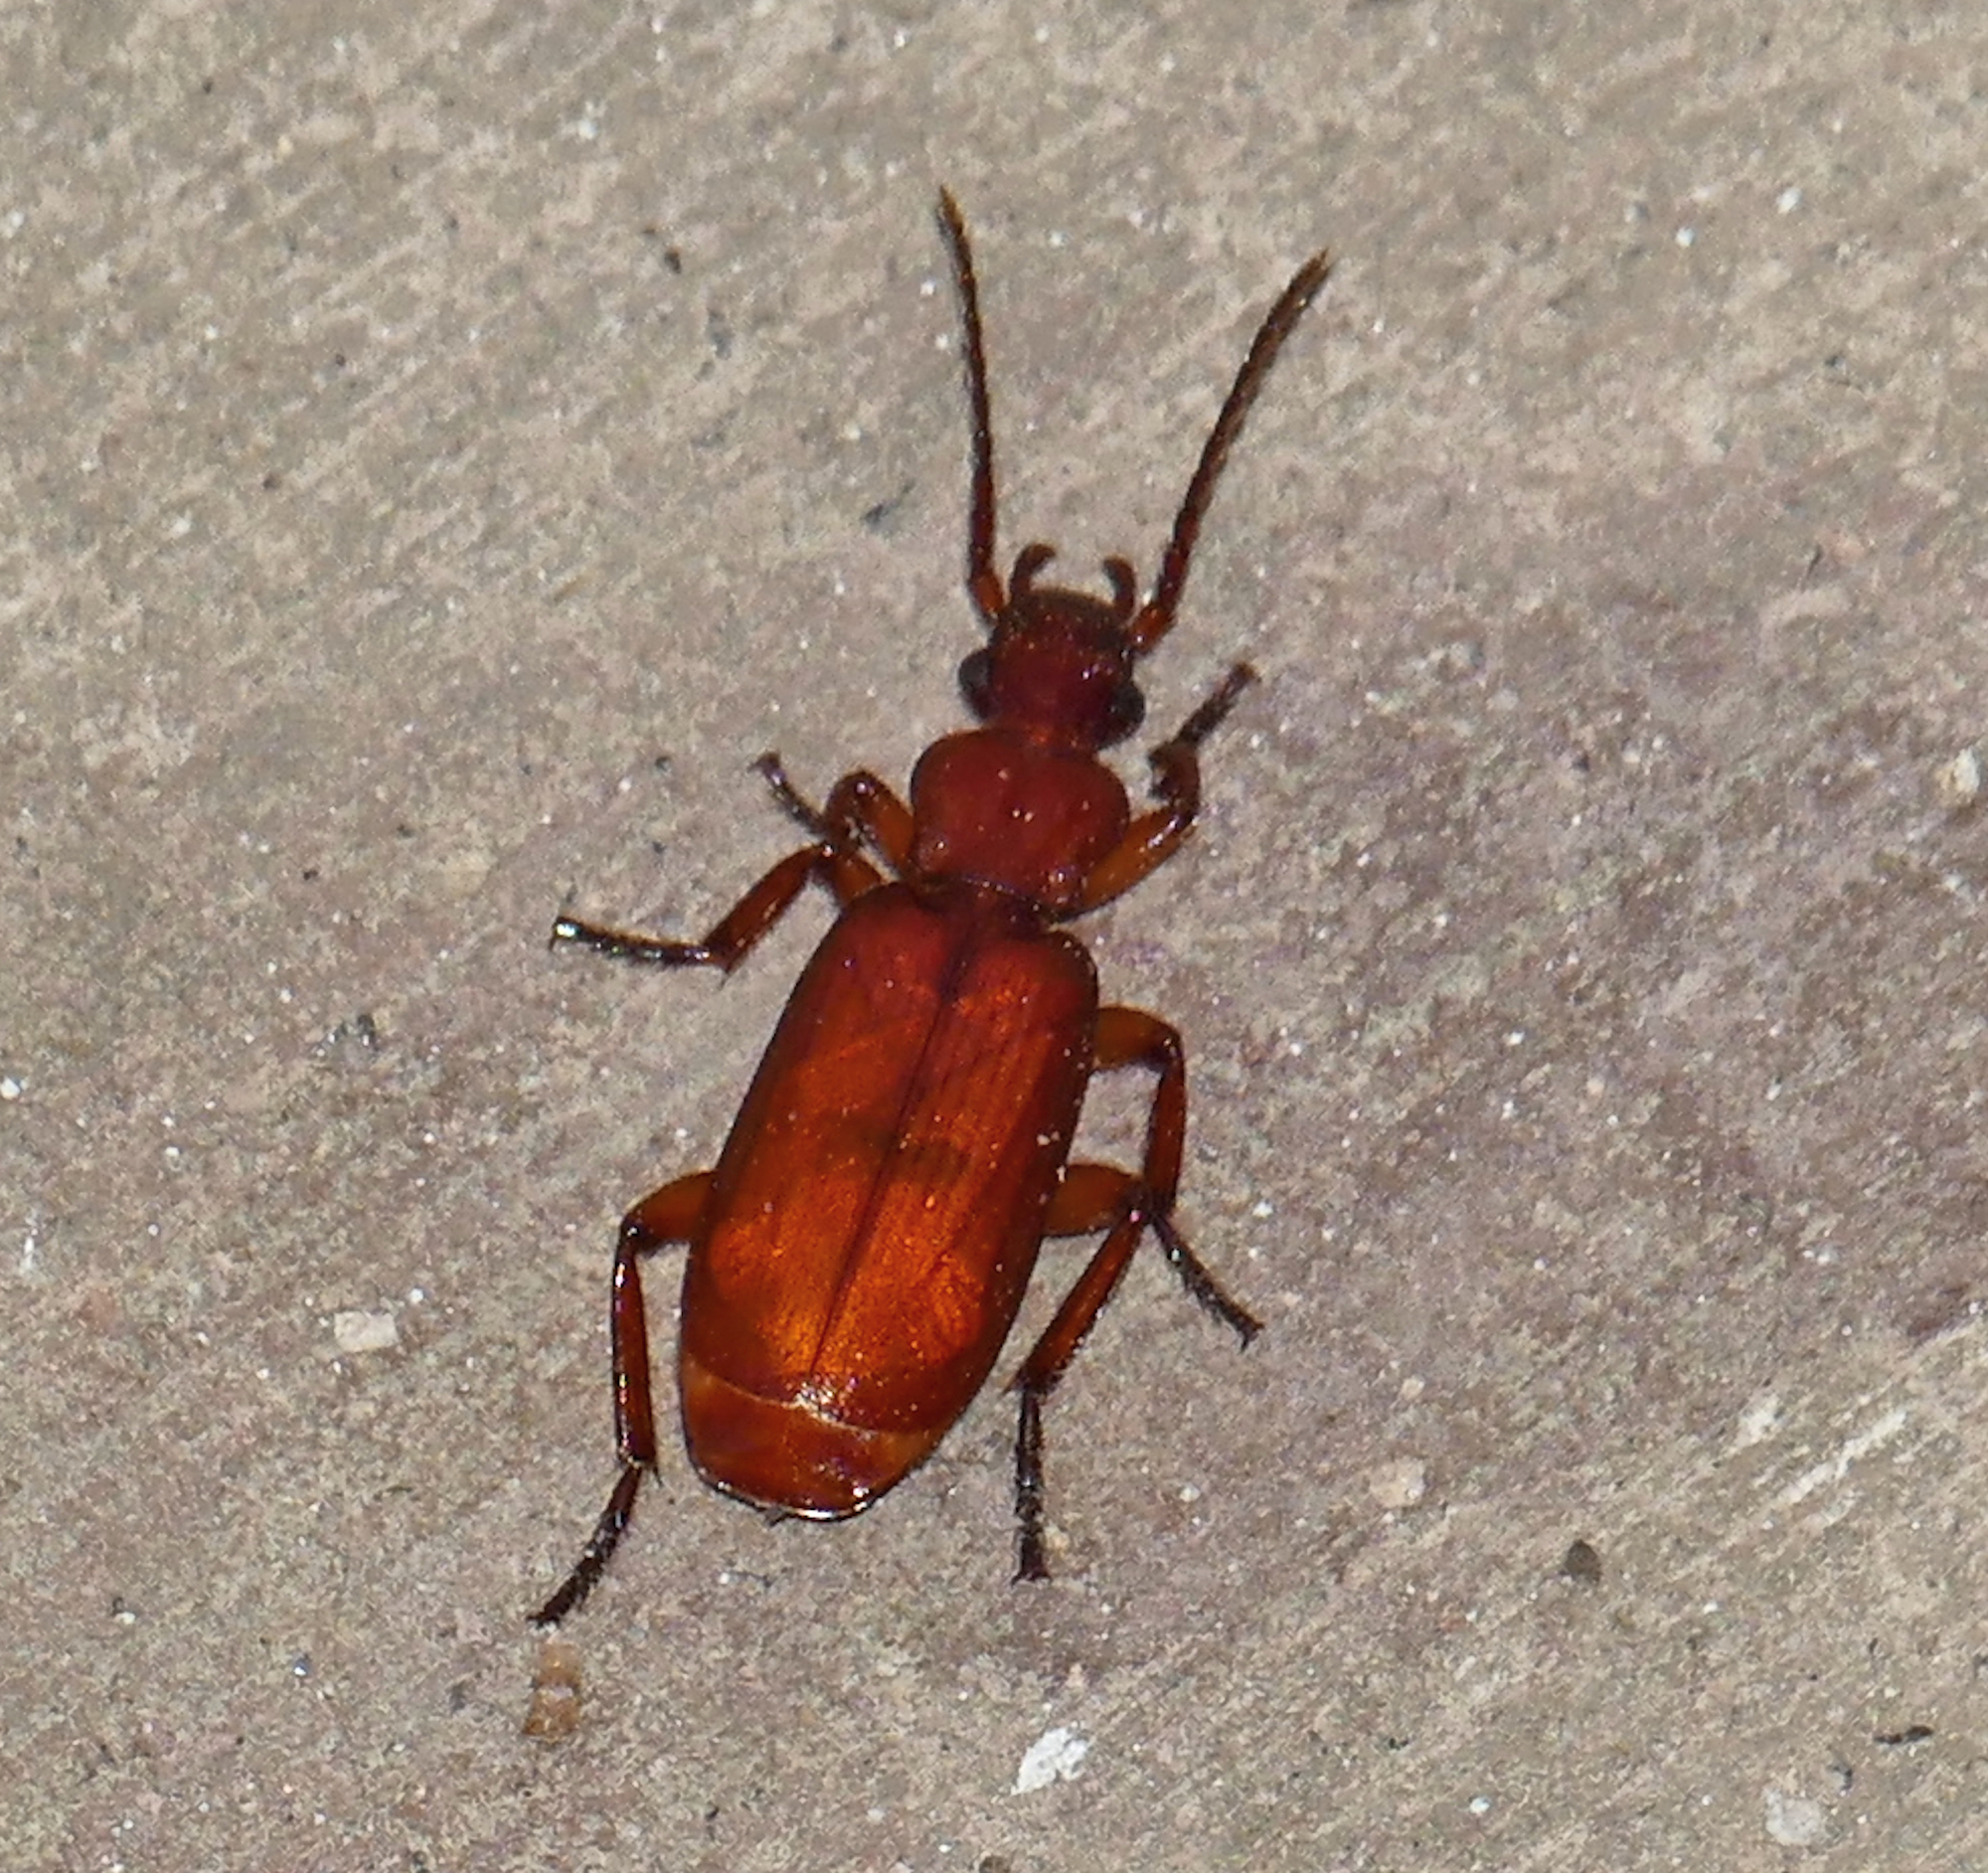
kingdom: Animalia
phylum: Arthropoda
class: Insecta
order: Coleoptera
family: Carabidae
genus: Helluomorphoides
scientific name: Helluomorphoides ferrugineus
